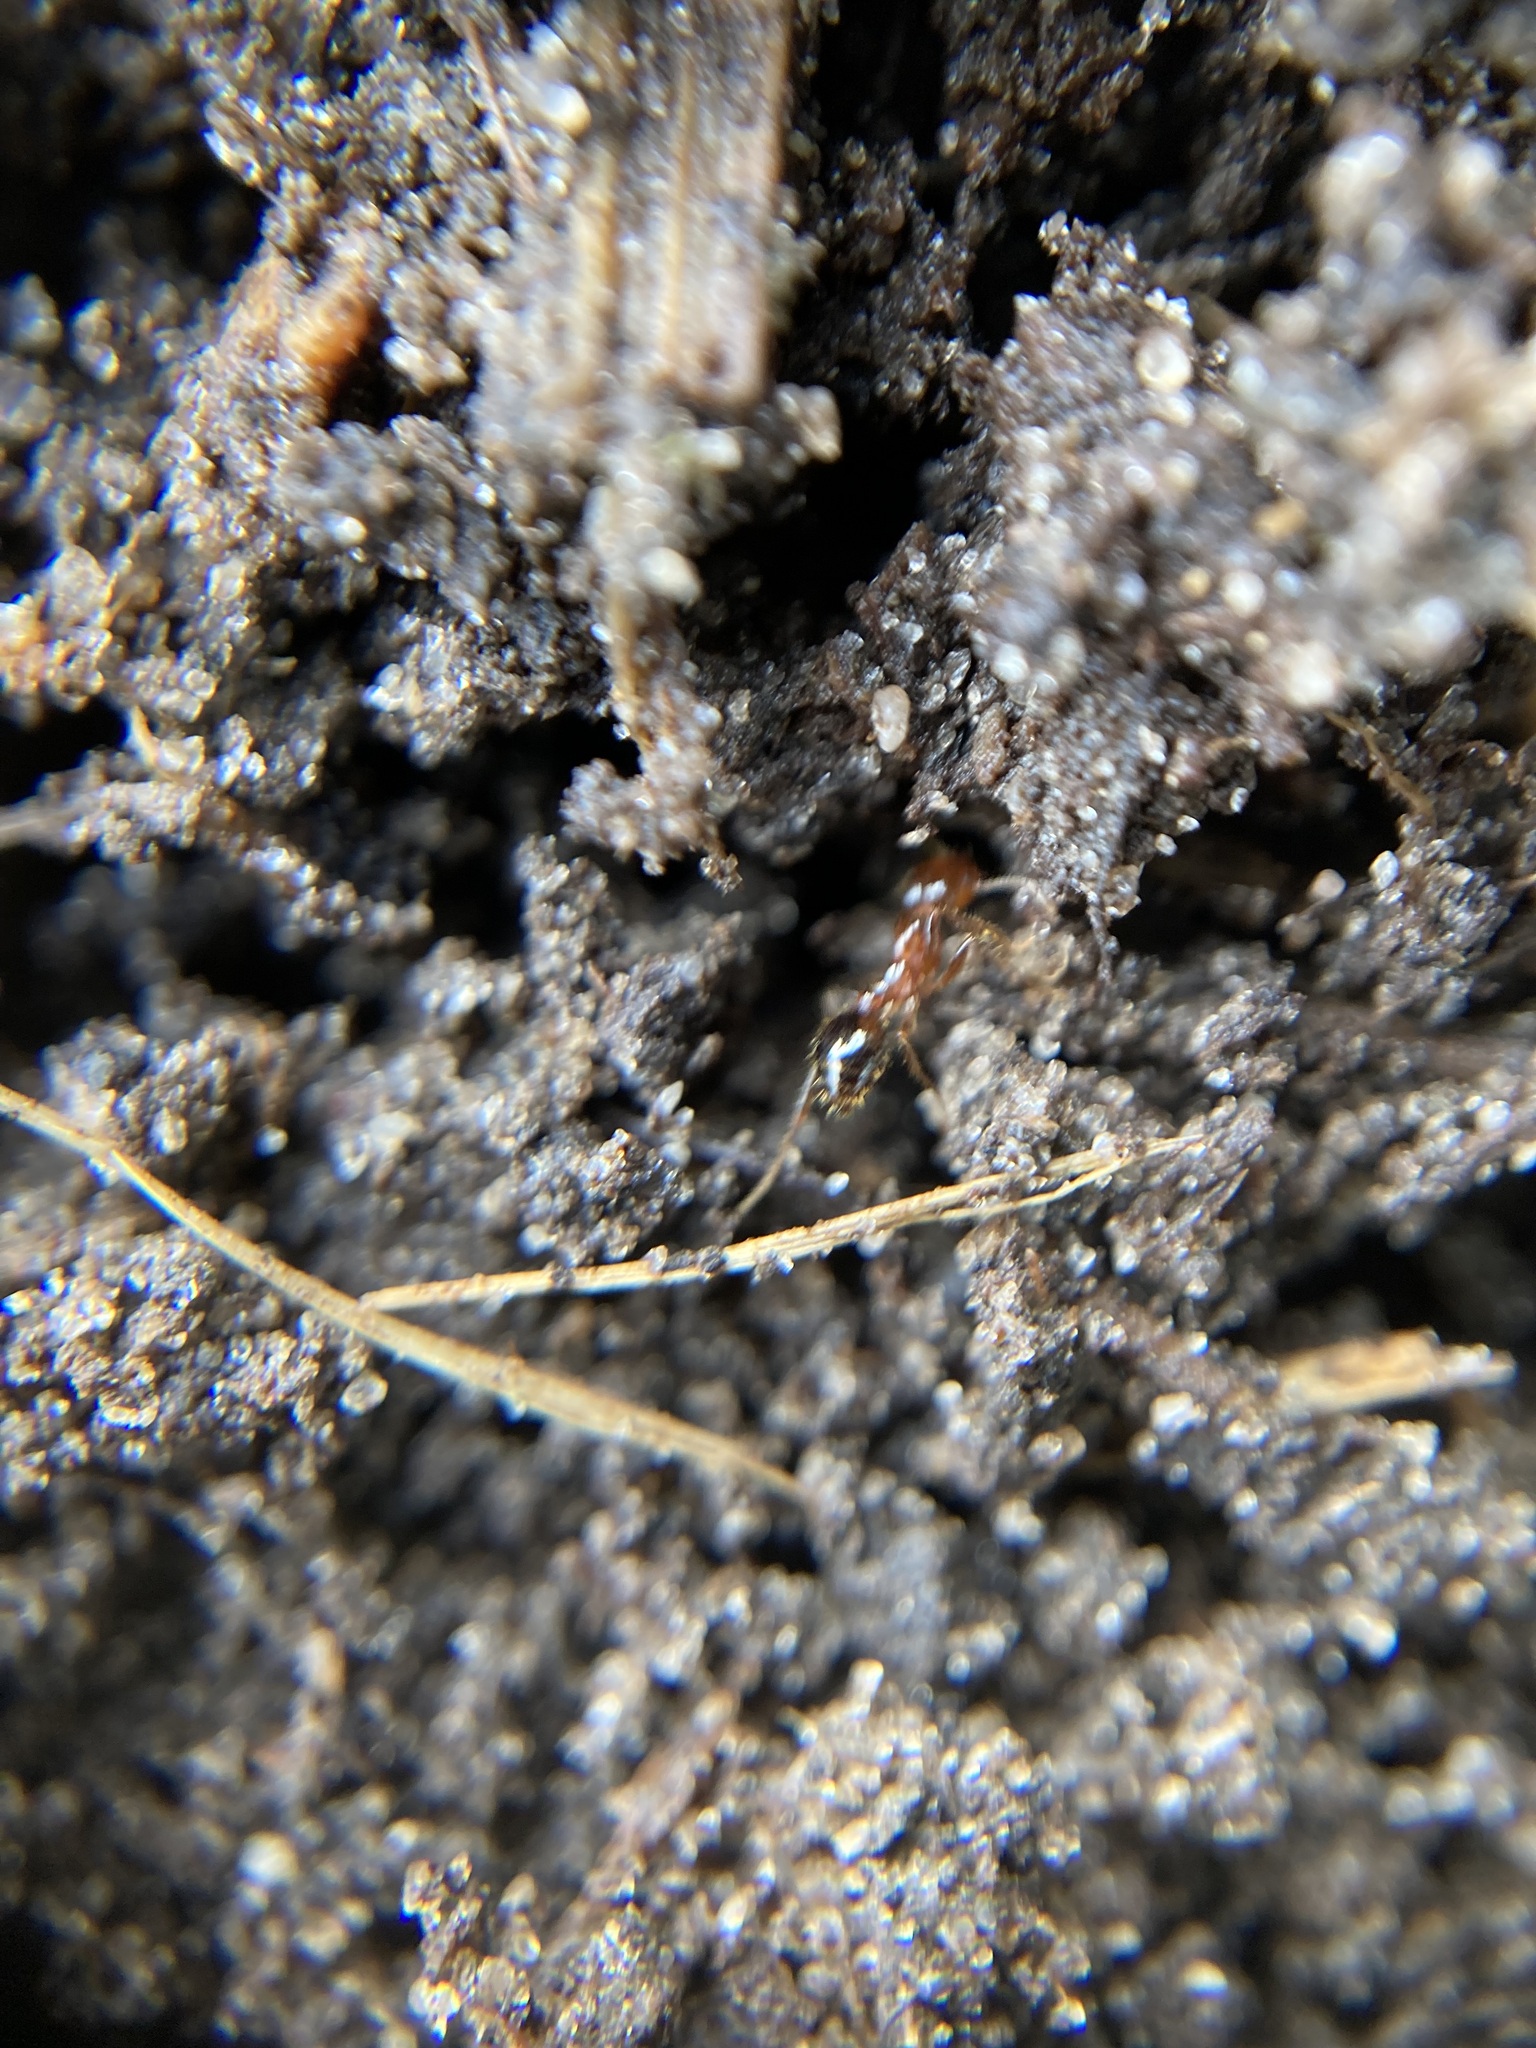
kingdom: Animalia
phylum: Arthropoda
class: Insecta
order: Hymenoptera
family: Formicidae
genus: Solenopsis
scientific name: Solenopsis invicta
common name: Red imported fire ant
